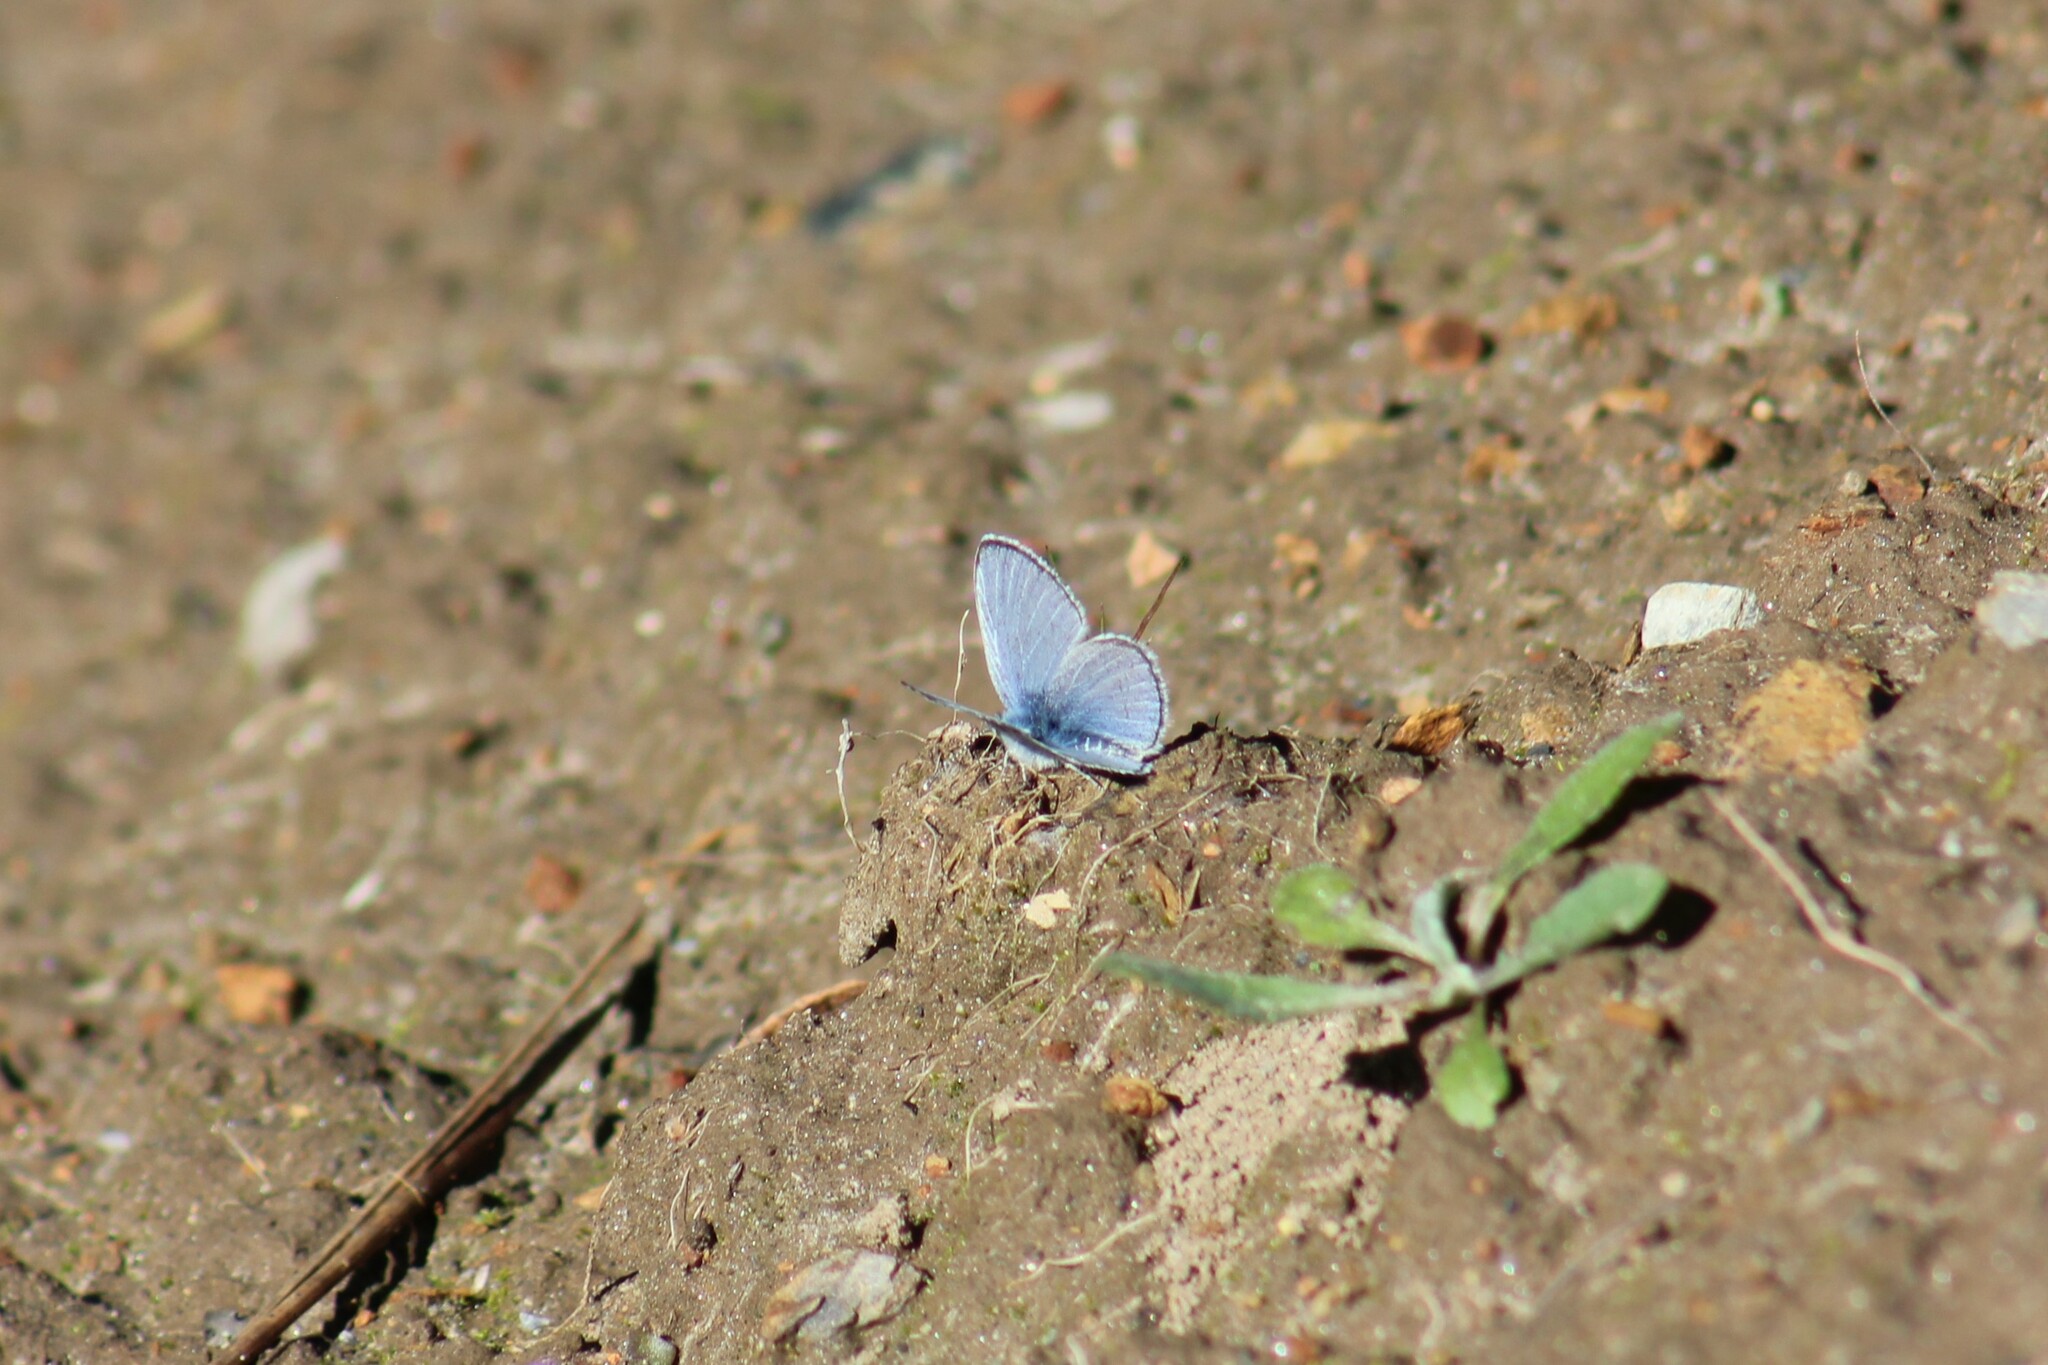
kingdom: Animalia
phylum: Arthropoda
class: Insecta
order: Lepidoptera
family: Lycaenidae
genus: Glaucopsyche
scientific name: Glaucopsyche lygdamus
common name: Silvery blue
